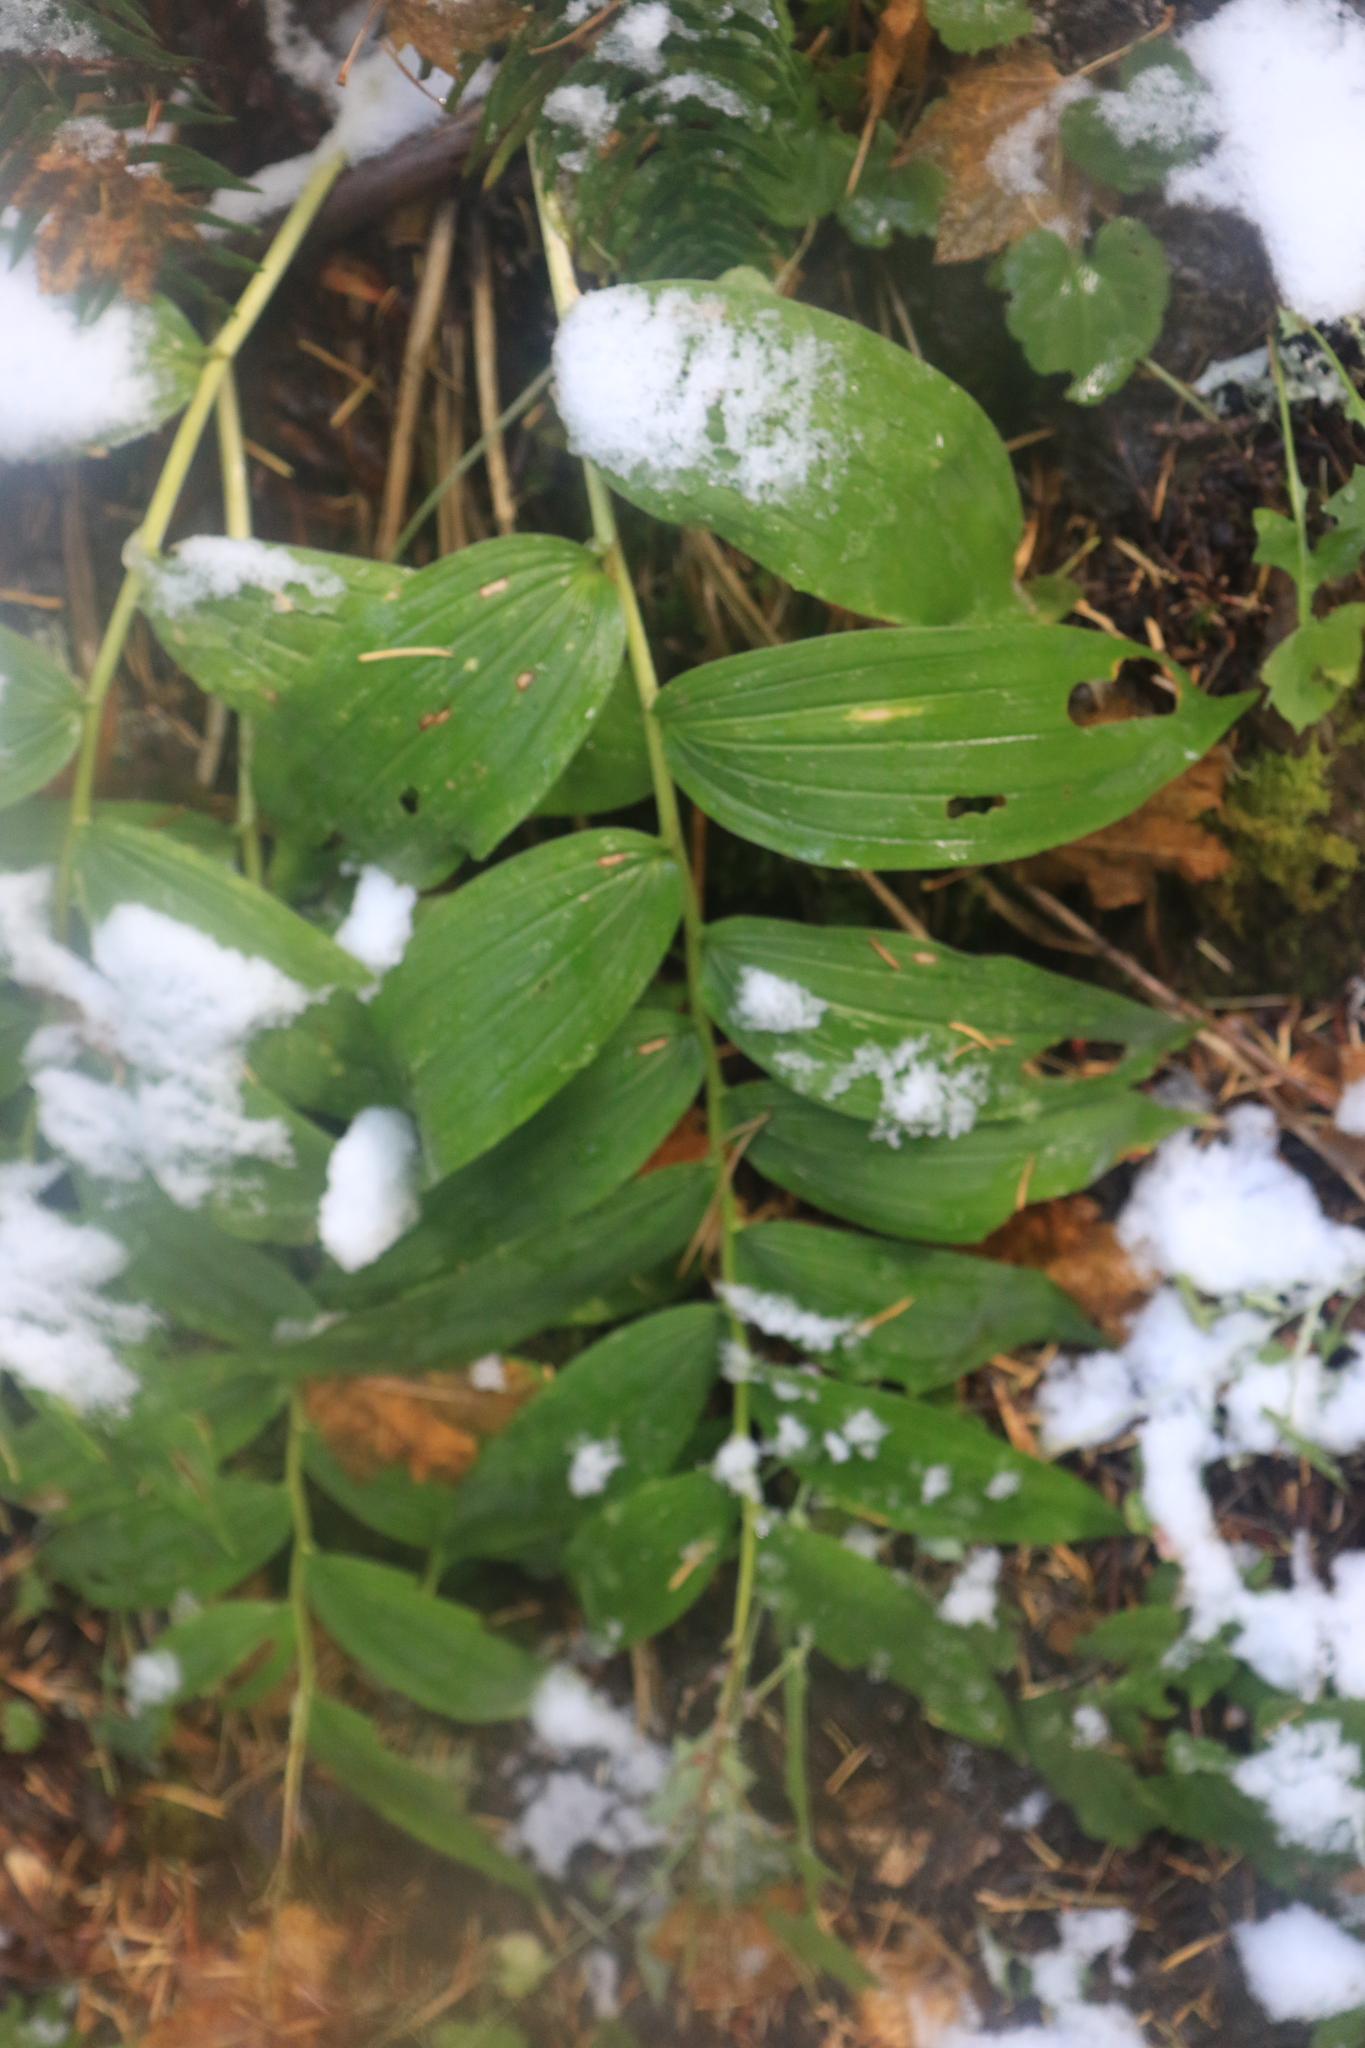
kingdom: Plantae
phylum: Tracheophyta
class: Liliopsida
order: Asparagales
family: Asparagaceae
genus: Maianthemum
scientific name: Maianthemum racemosum
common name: False spikenard
